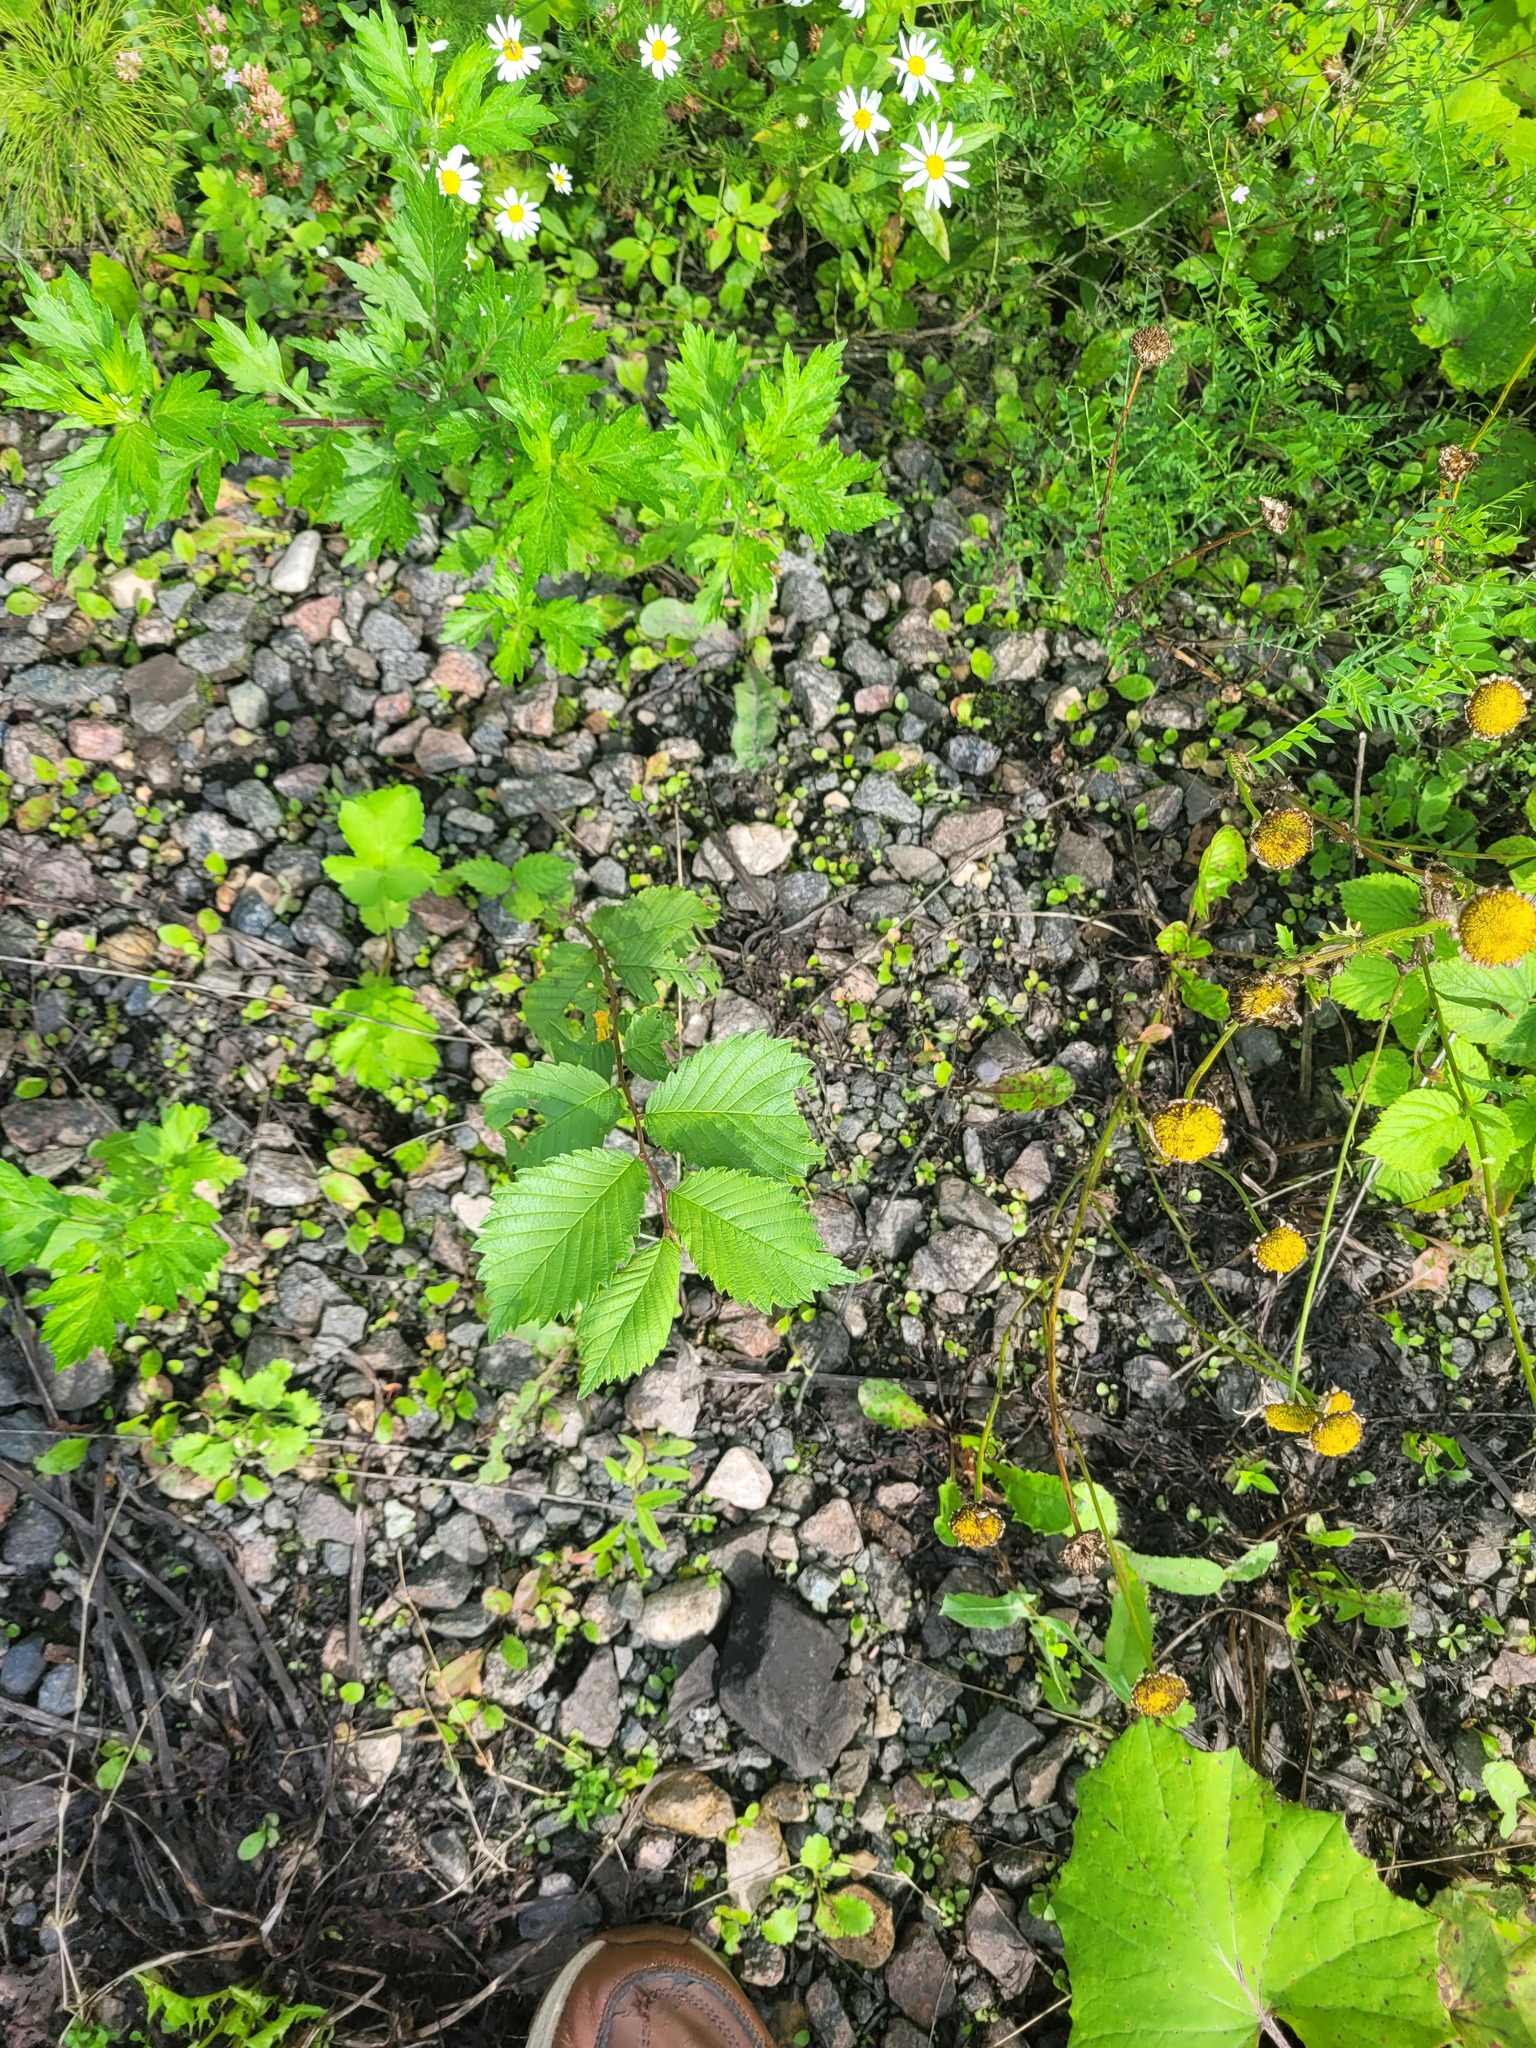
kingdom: Plantae
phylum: Tracheophyta
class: Magnoliopsida
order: Rosales
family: Ulmaceae
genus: Ulmus
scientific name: Ulmus laevis
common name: European white-elm
